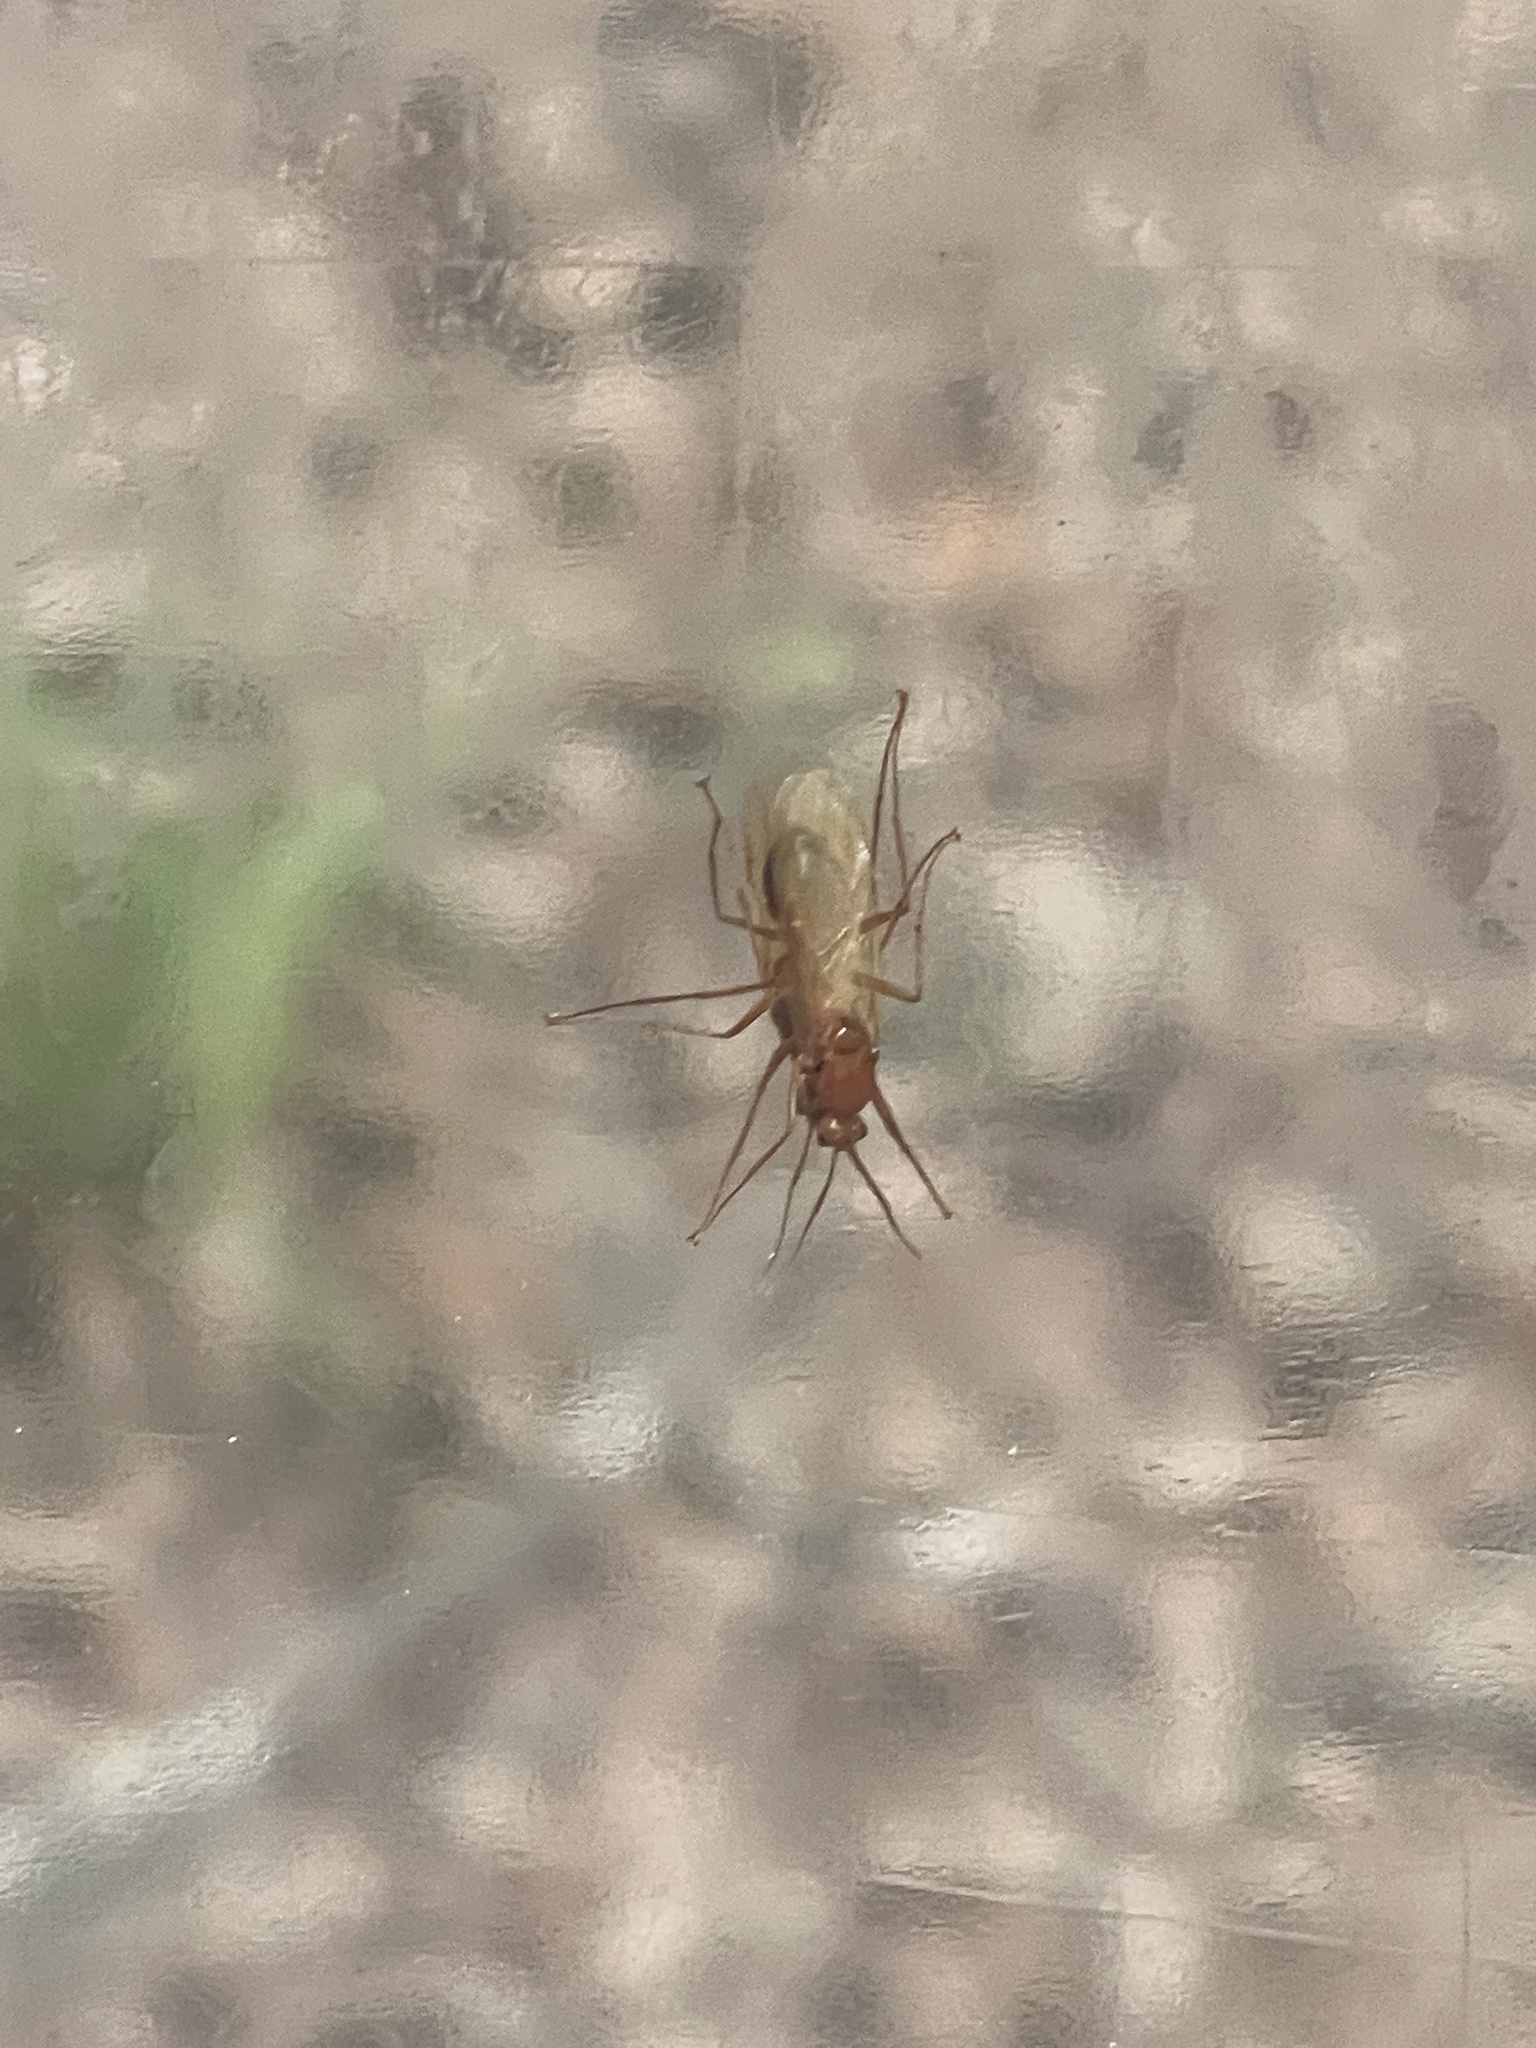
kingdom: Animalia
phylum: Arthropoda
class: Insecta
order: Hymenoptera
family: Formicidae
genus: Camponotus
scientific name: Camponotus castaneus
